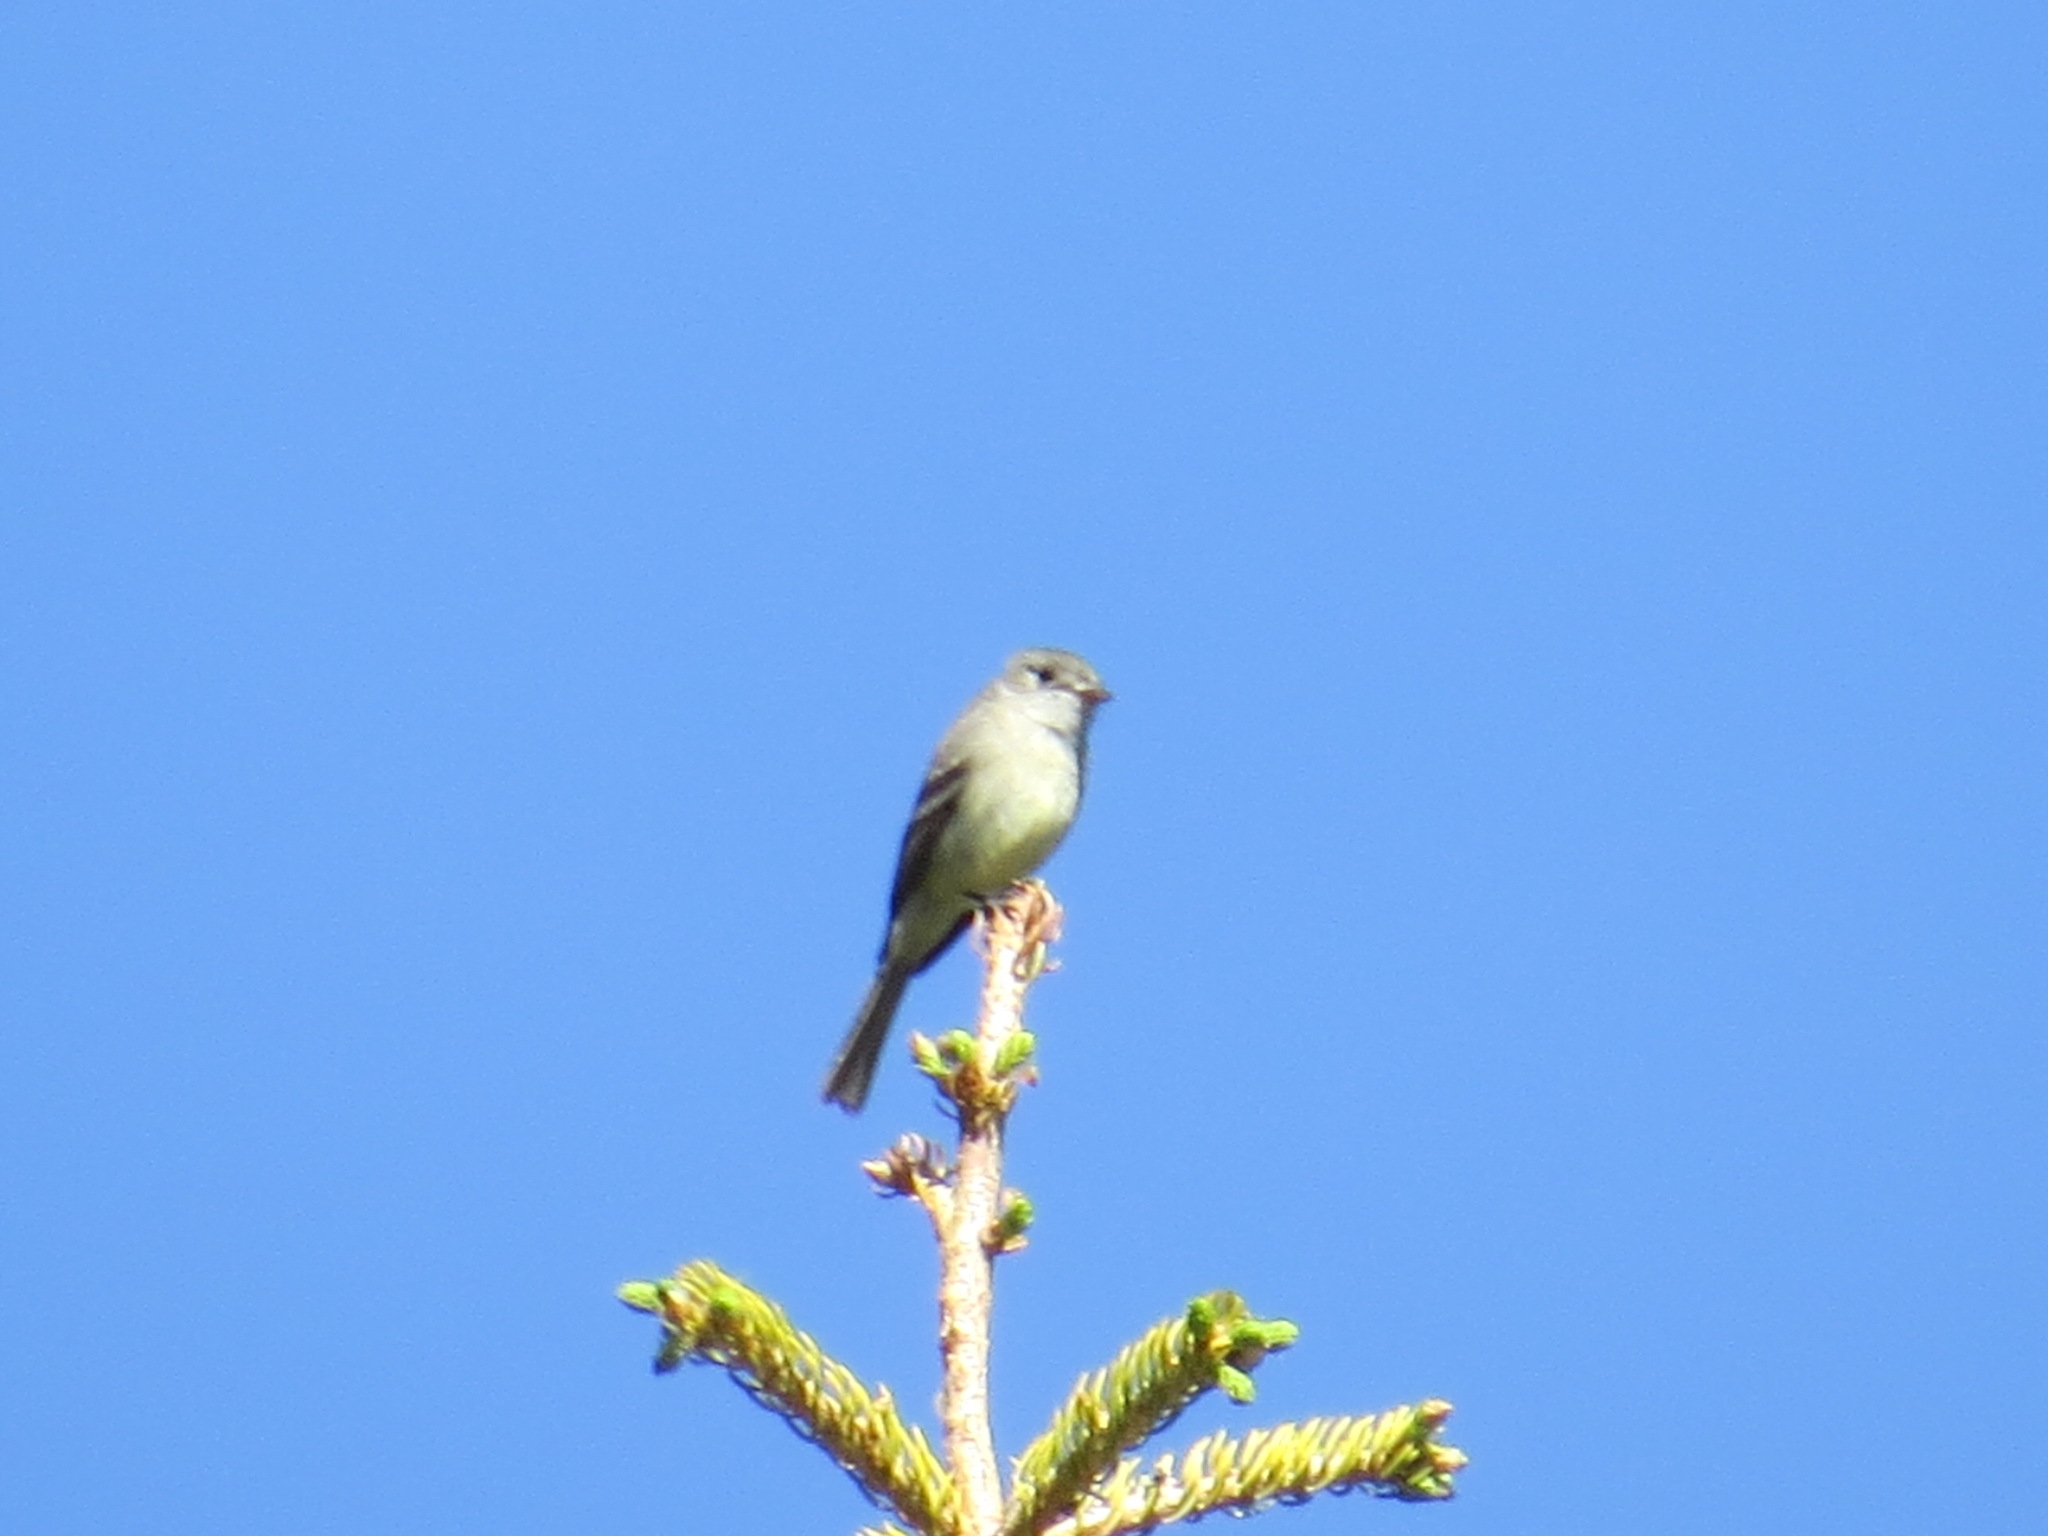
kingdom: Animalia
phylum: Chordata
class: Aves
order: Passeriformes
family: Tyrannidae
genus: Empidonax
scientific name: Empidonax oberholseri
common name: Dusky flycatcher
